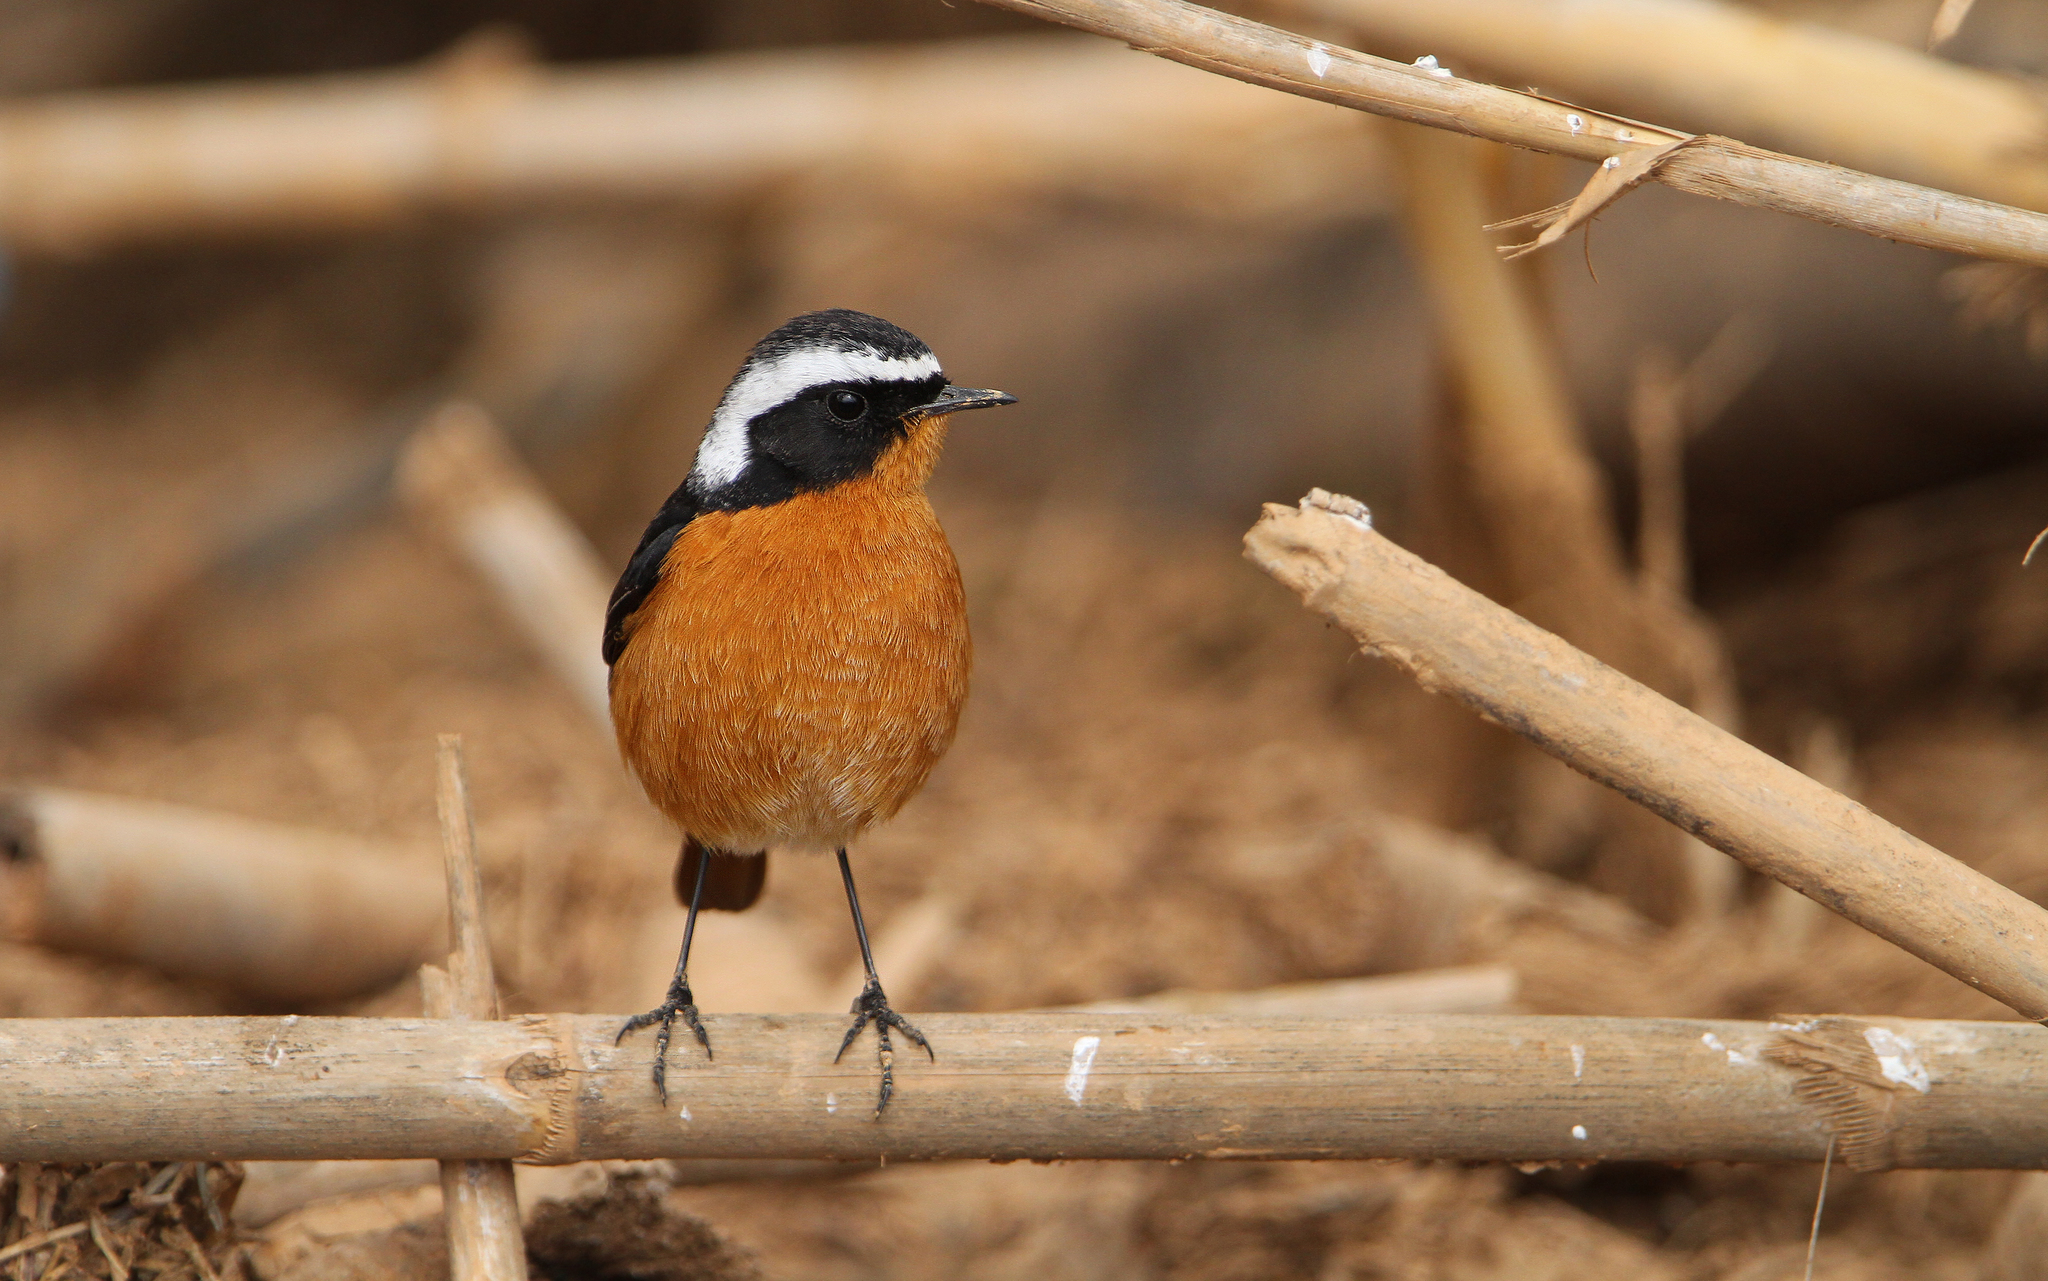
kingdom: Animalia
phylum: Chordata
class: Aves
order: Passeriformes
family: Muscicapidae
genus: Phoenicurus
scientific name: Phoenicurus moussieri
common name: Moussier's redstart
